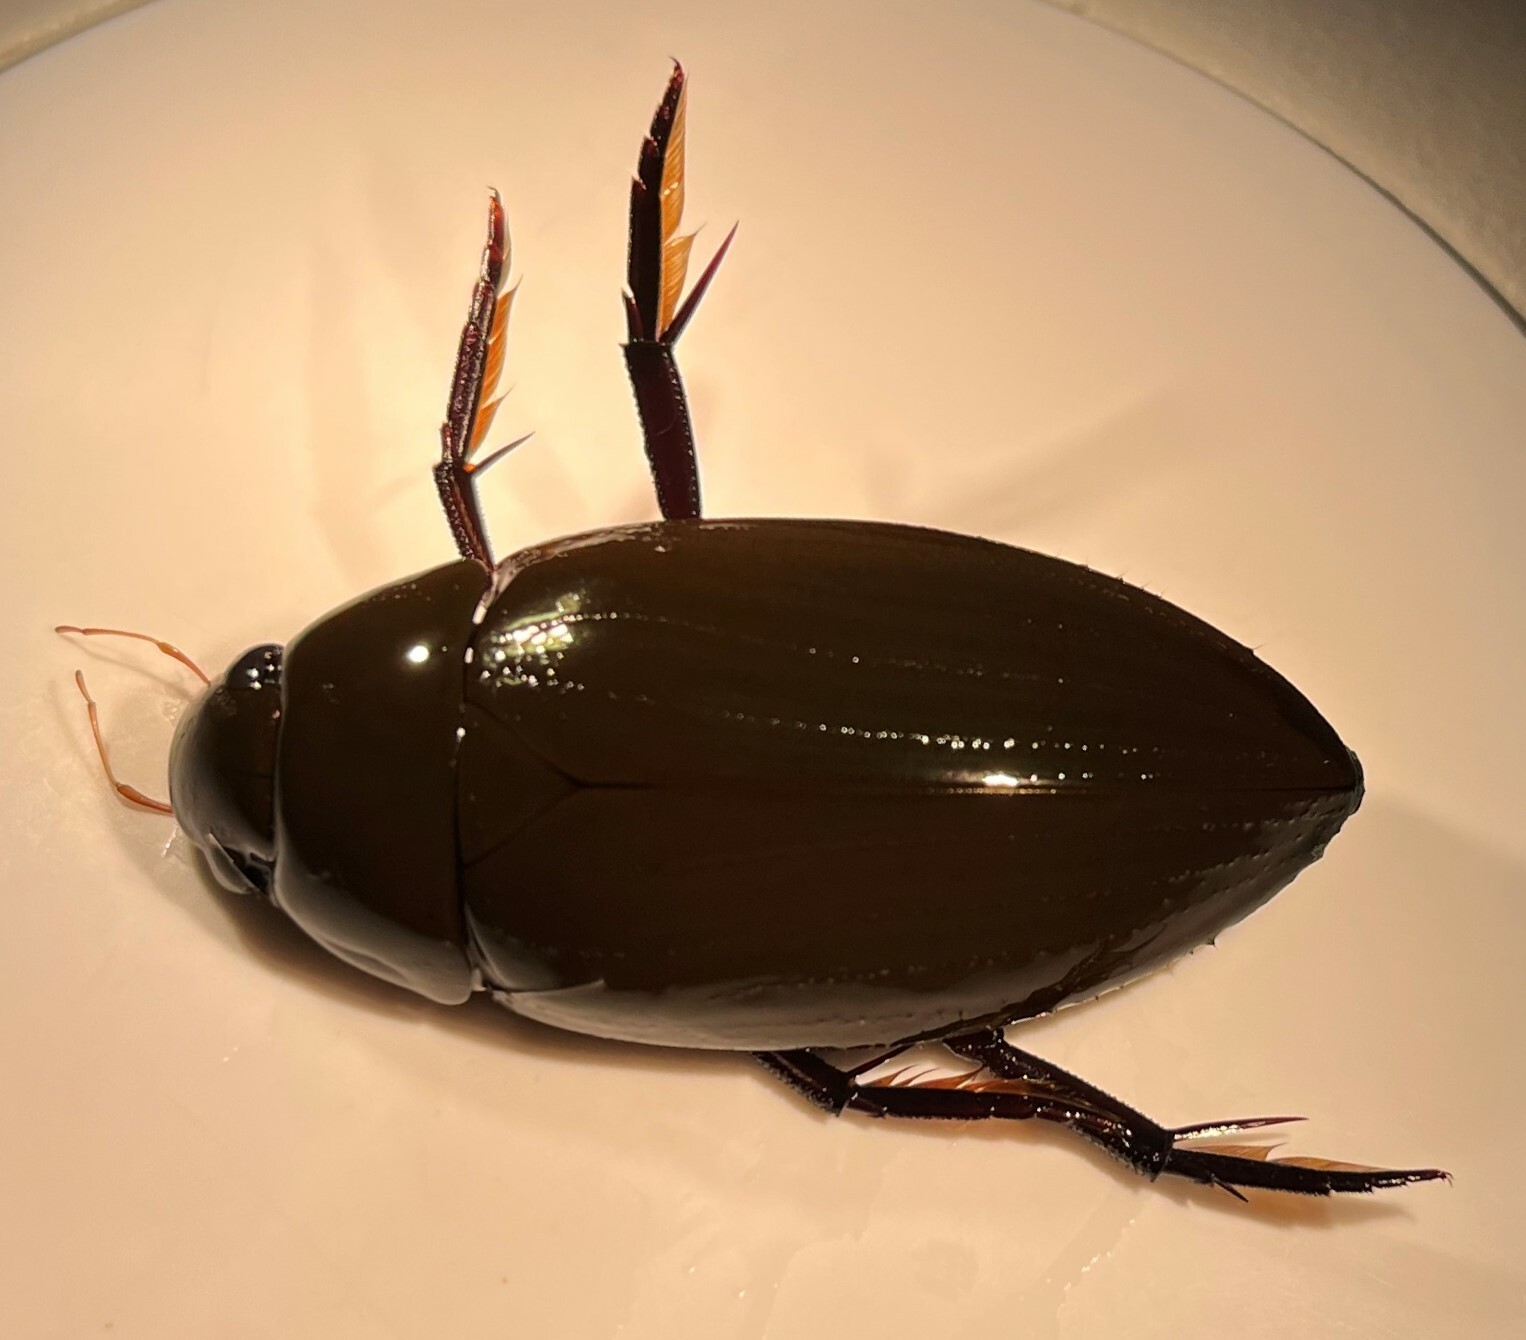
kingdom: Animalia
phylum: Arthropoda
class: Insecta
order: Coleoptera
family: Hydrophilidae
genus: Hydrophilus
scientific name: Hydrophilus insularis
